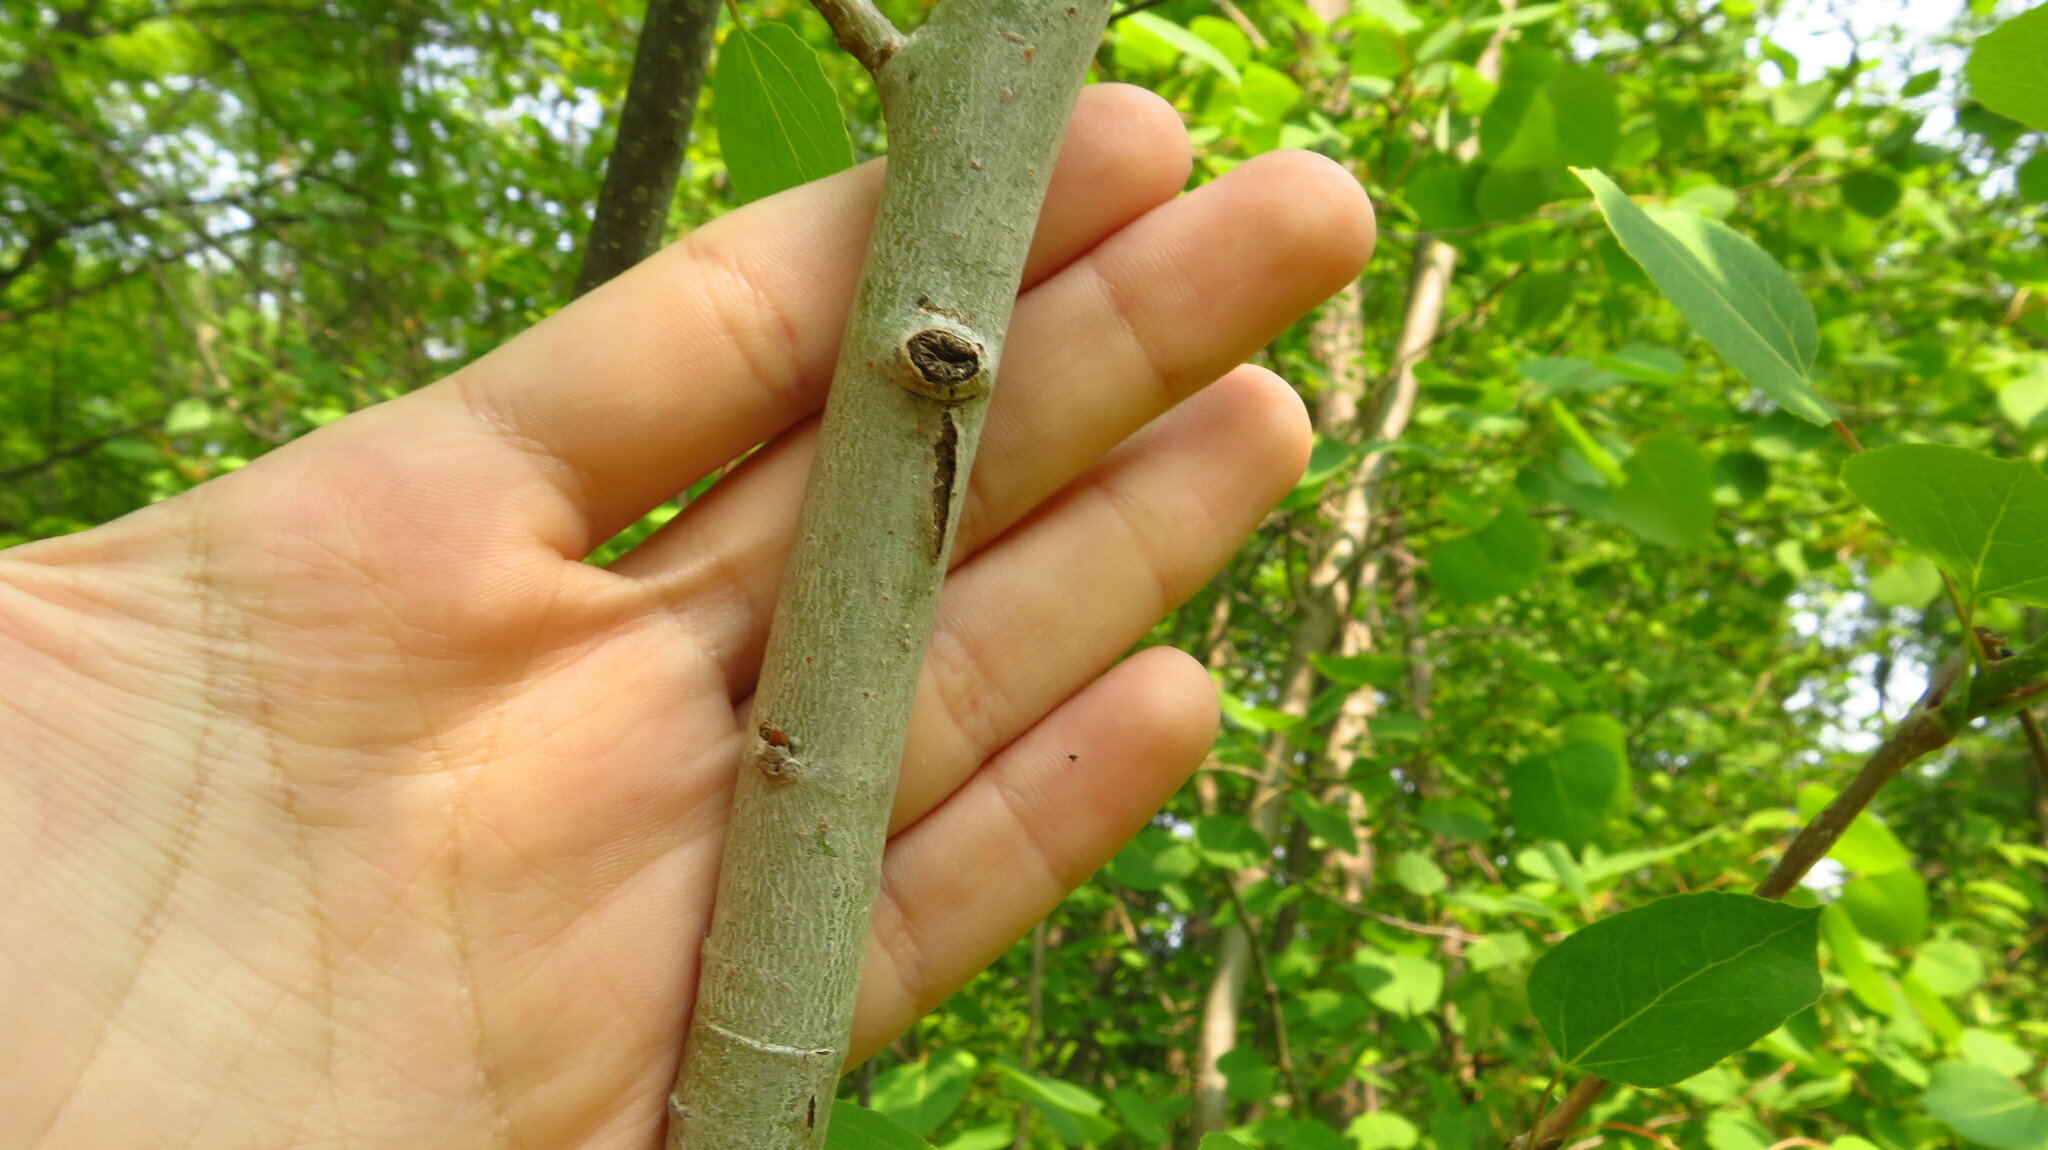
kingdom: Plantae
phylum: Tracheophyta
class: Magnoliopsida
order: Malpighiales
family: Salicaceae
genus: Populus
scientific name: Populus tremuloides
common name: Quaking aspen
